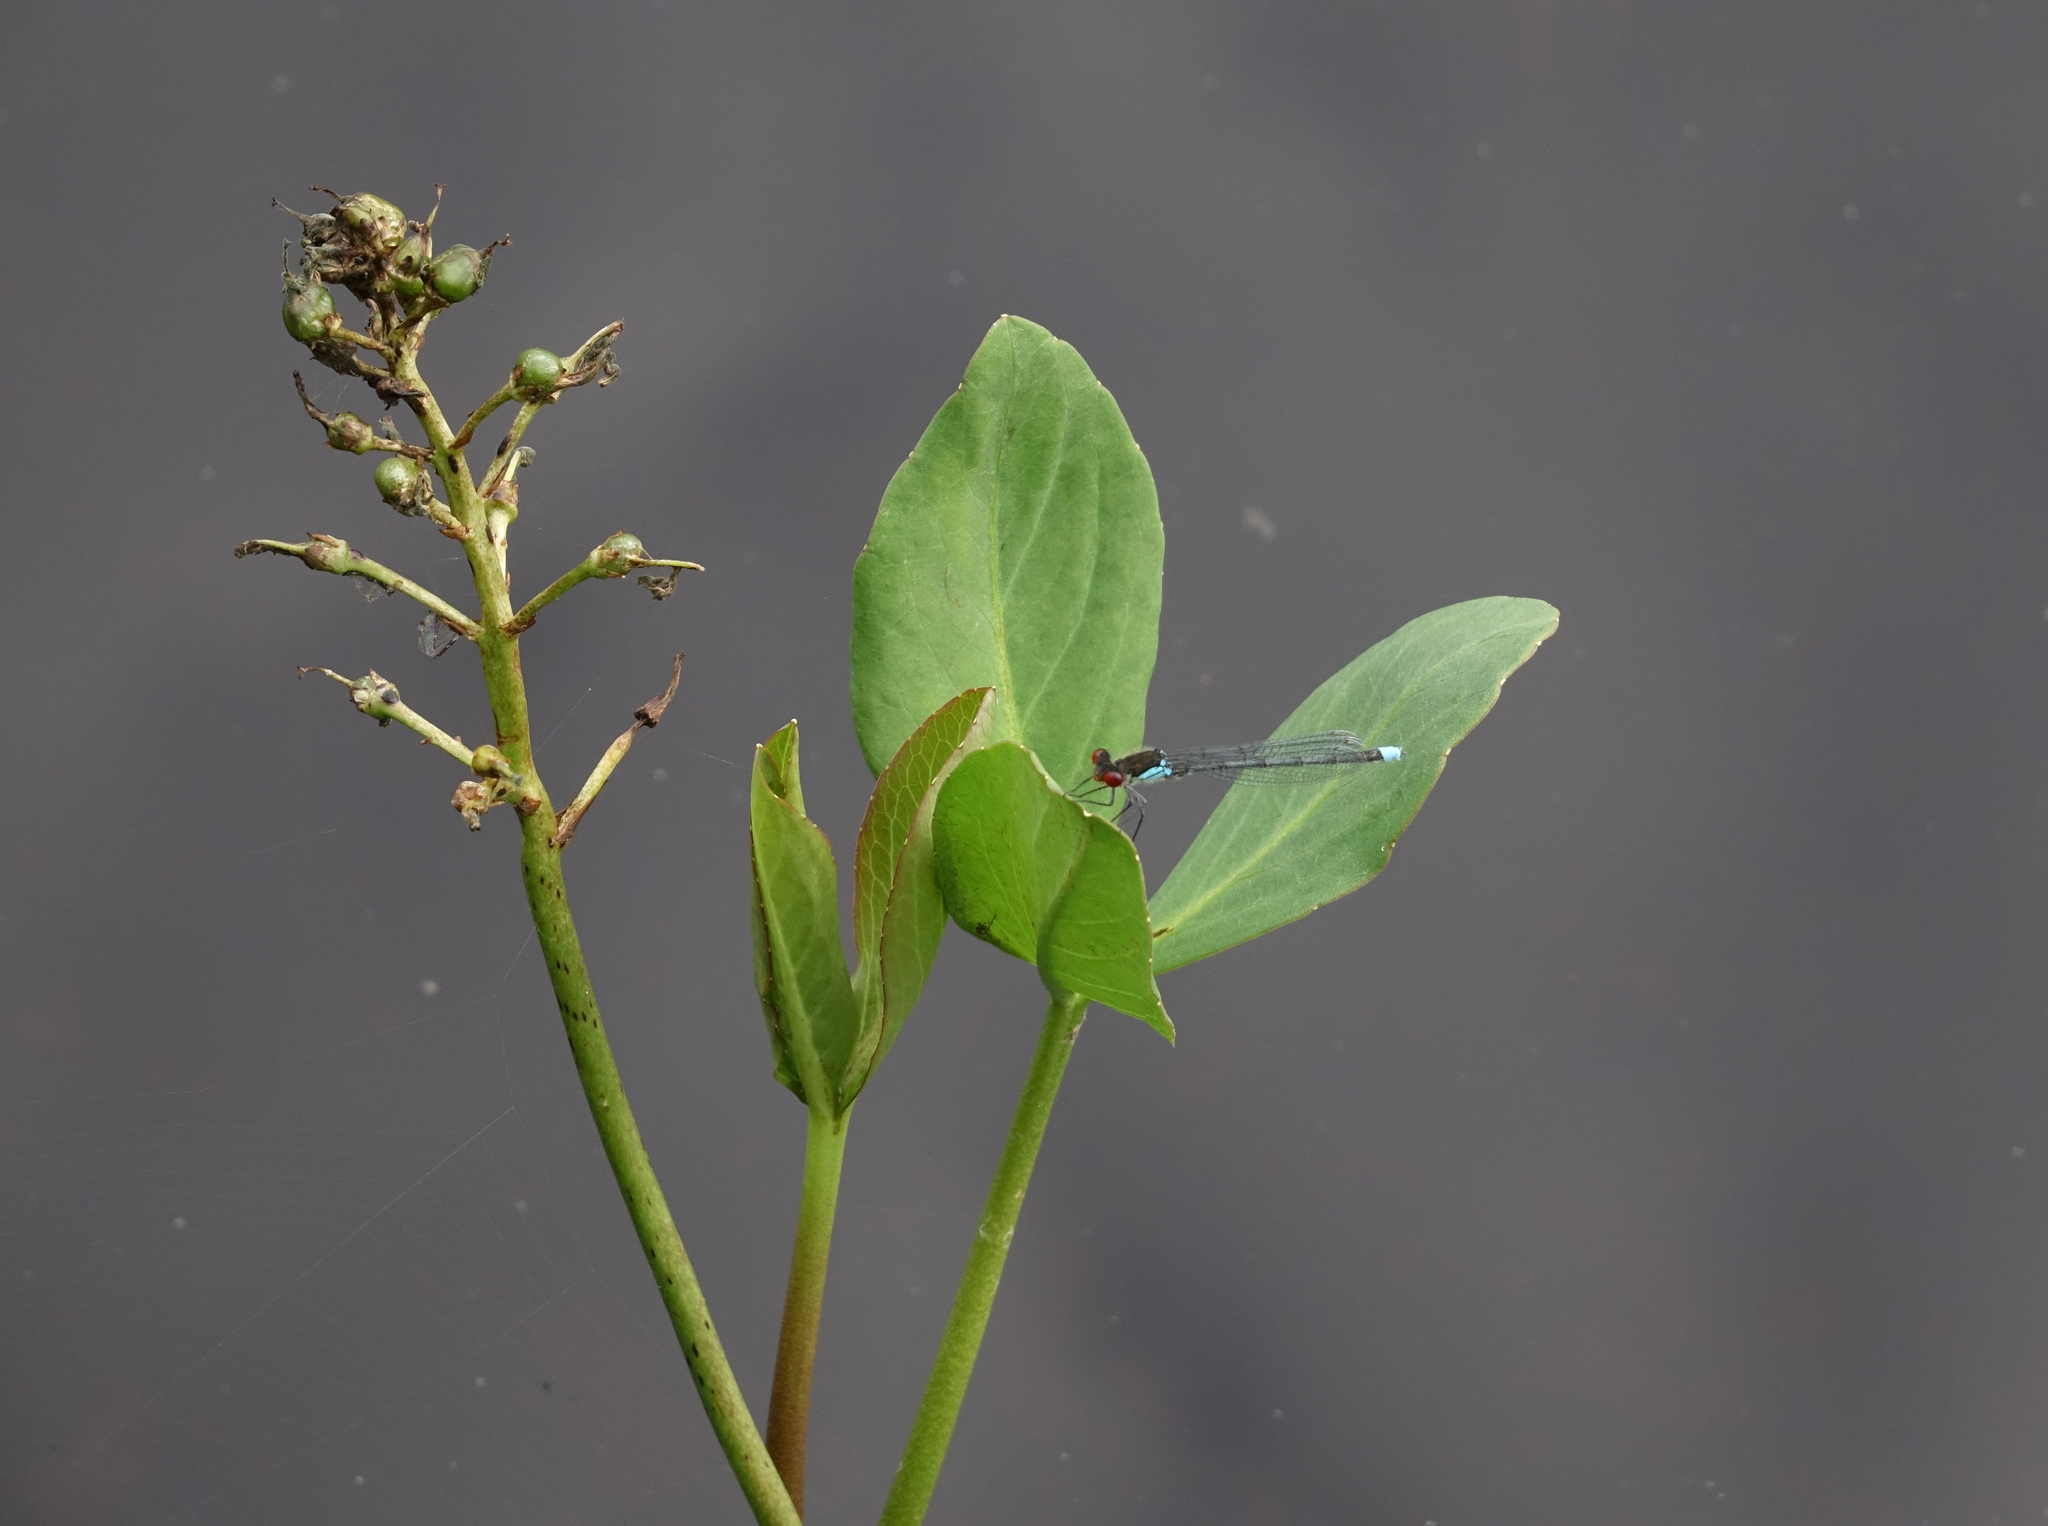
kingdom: Animalia
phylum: Arthropoda
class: Insecta
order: Odonata
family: Coenagrionidae
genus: Erythromma
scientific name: Erythromma najas
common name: Red-eyed damselfly
